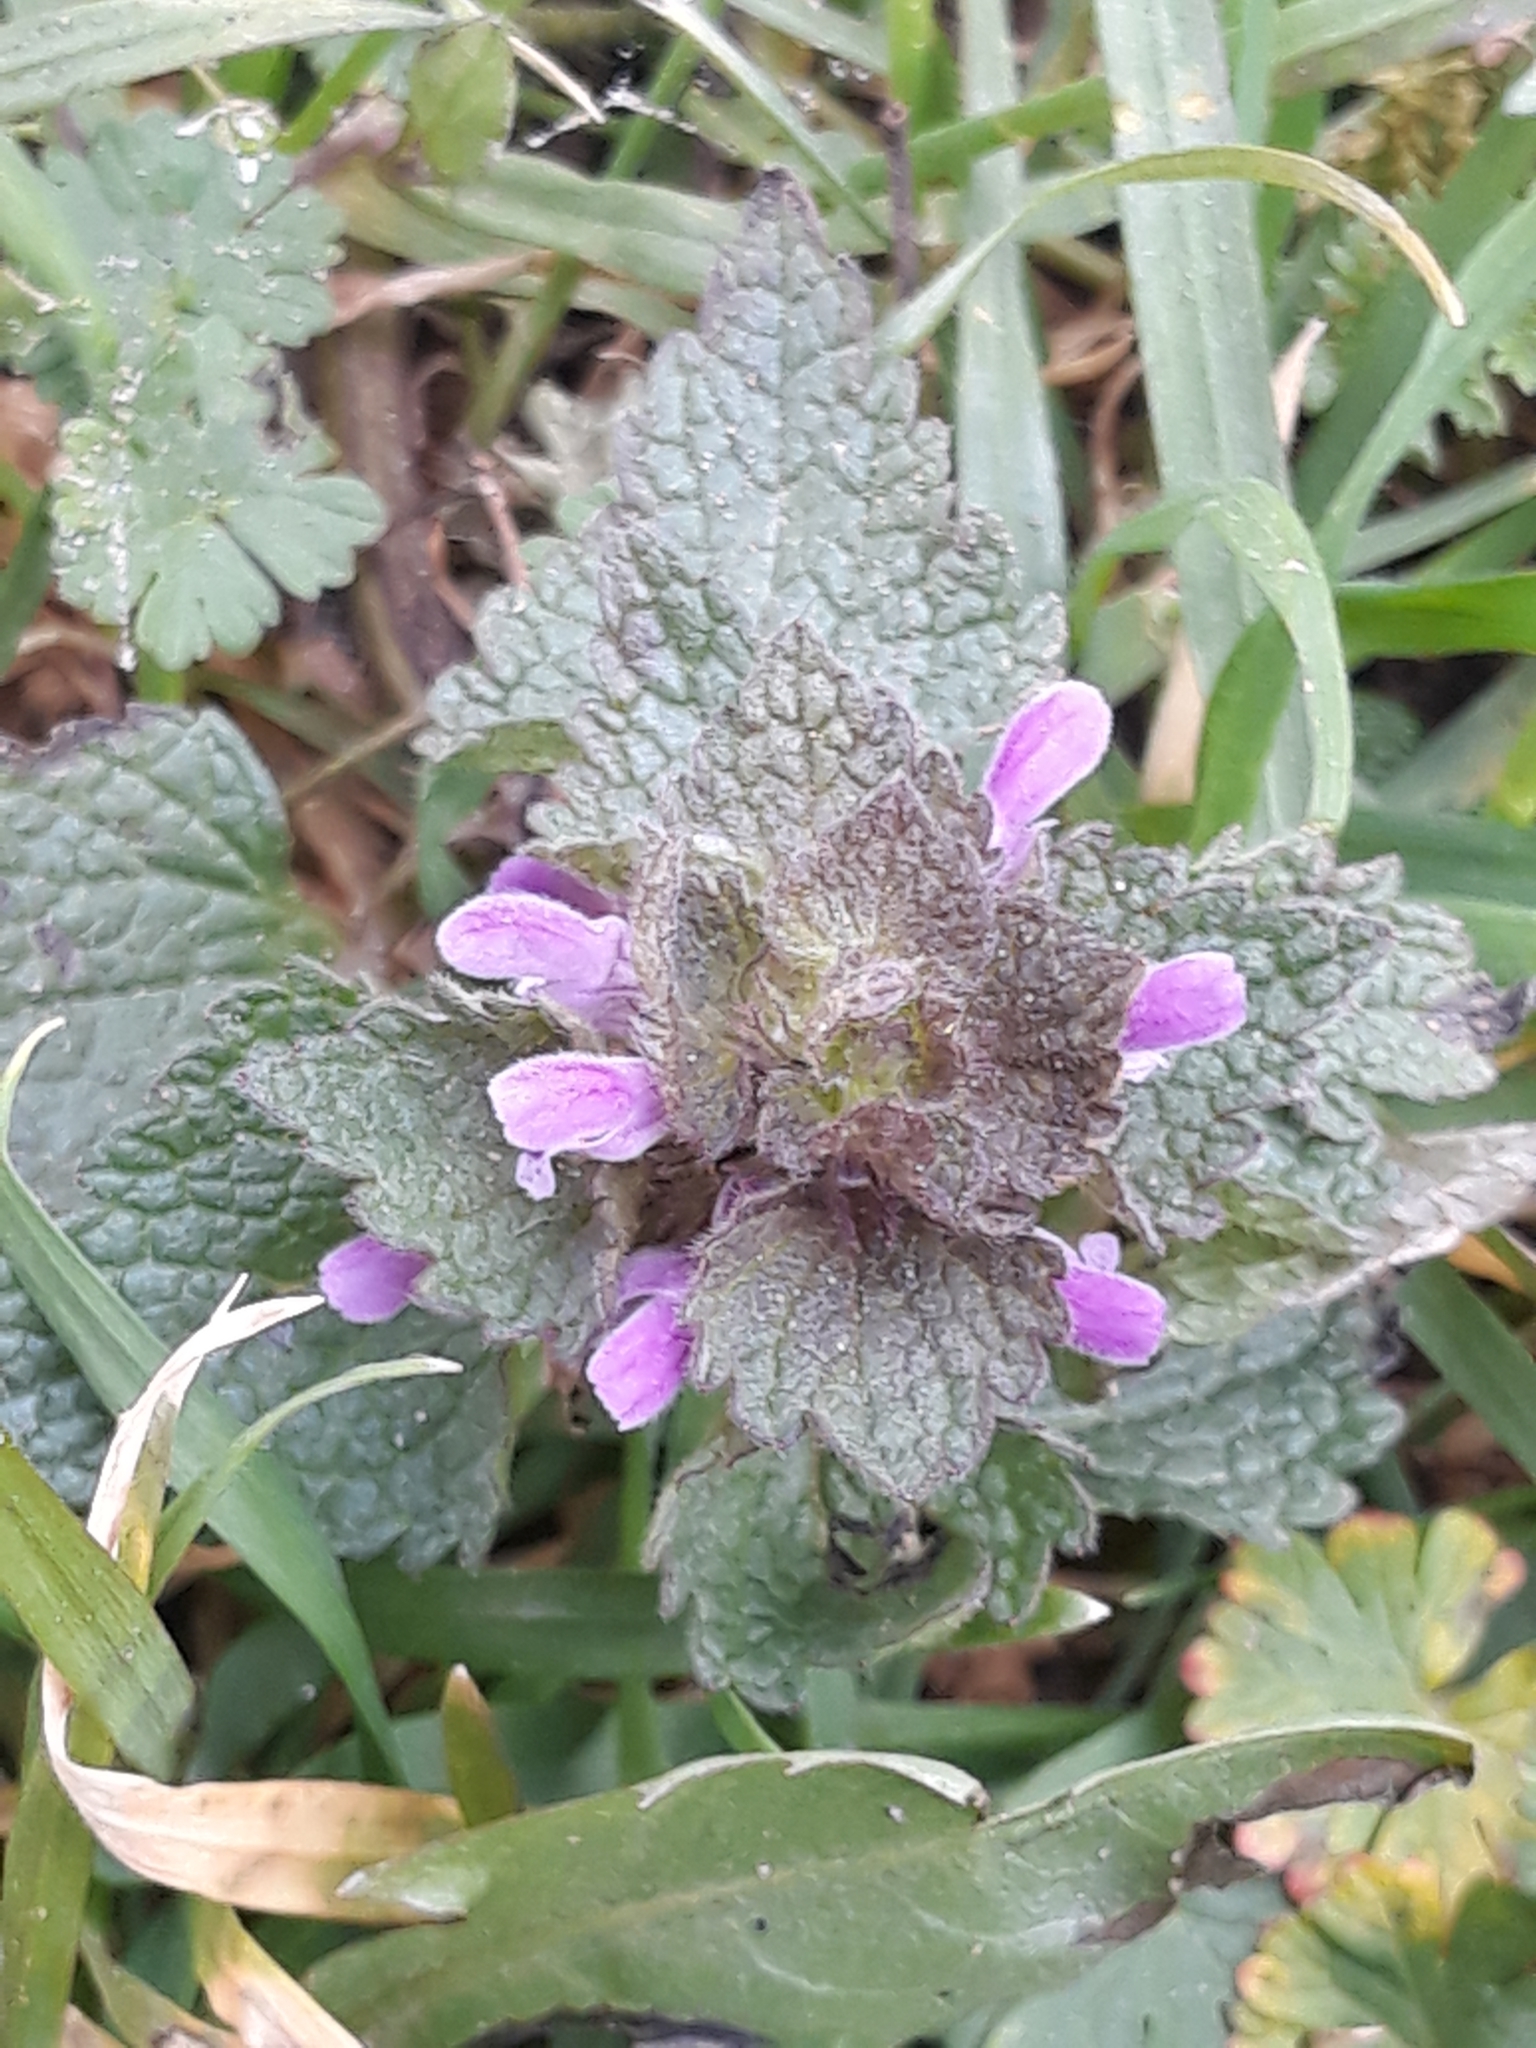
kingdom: Plantae
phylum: Tracheophyta
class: Magnoliopsida
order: Lamiales
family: Lamiaceae
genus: Lamium
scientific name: Lamium purpureum
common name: Red dead-nettle
